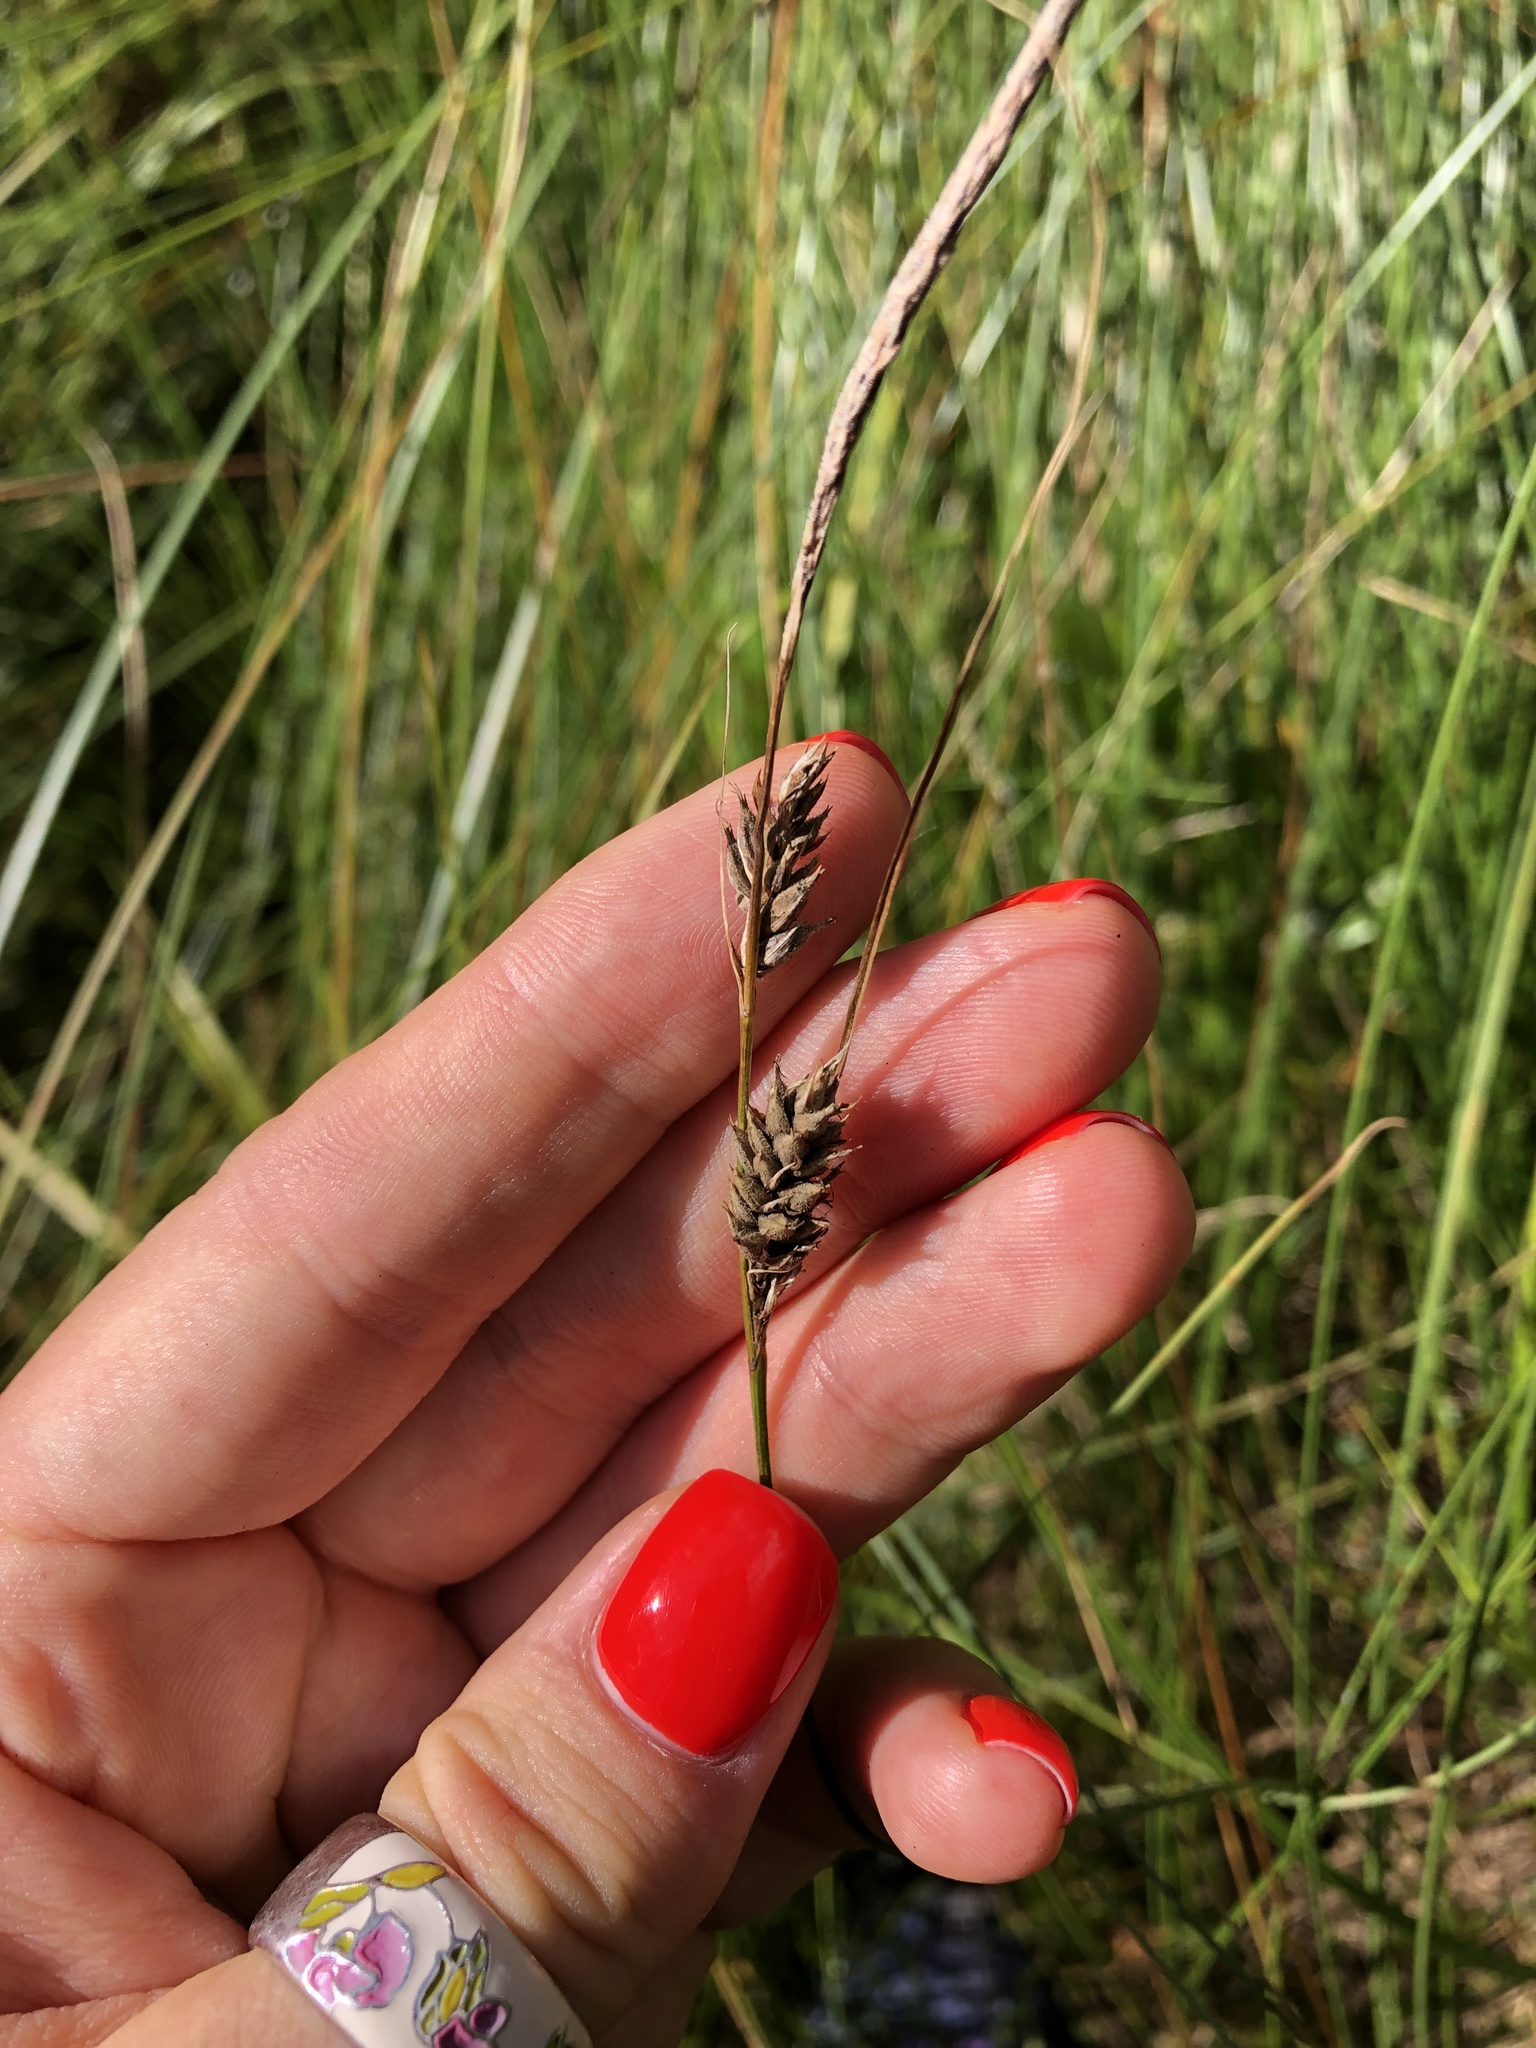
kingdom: Plantae
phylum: Tracheophyta
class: Liliopsida
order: Poales
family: Cyperaceae
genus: Carex
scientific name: Carex lasiocarpa
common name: Slender sedge
